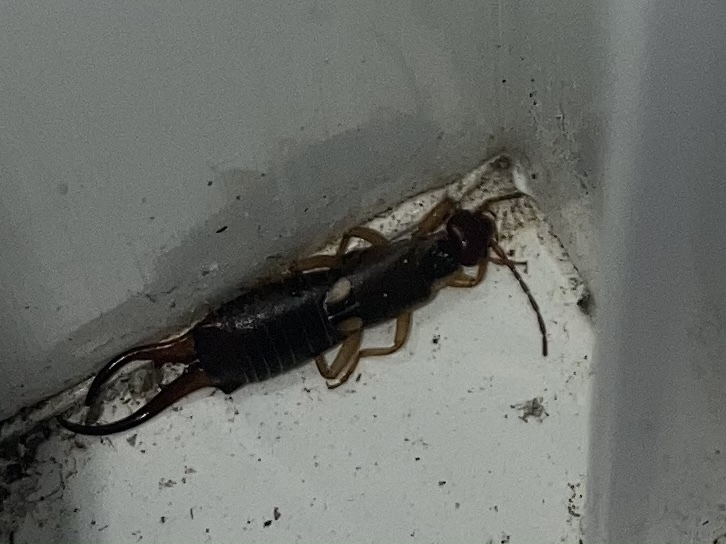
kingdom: Animalia
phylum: Arthropoda
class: Insecta
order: Dermaptera
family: Forficulidae
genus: Forficula
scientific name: Forficula
